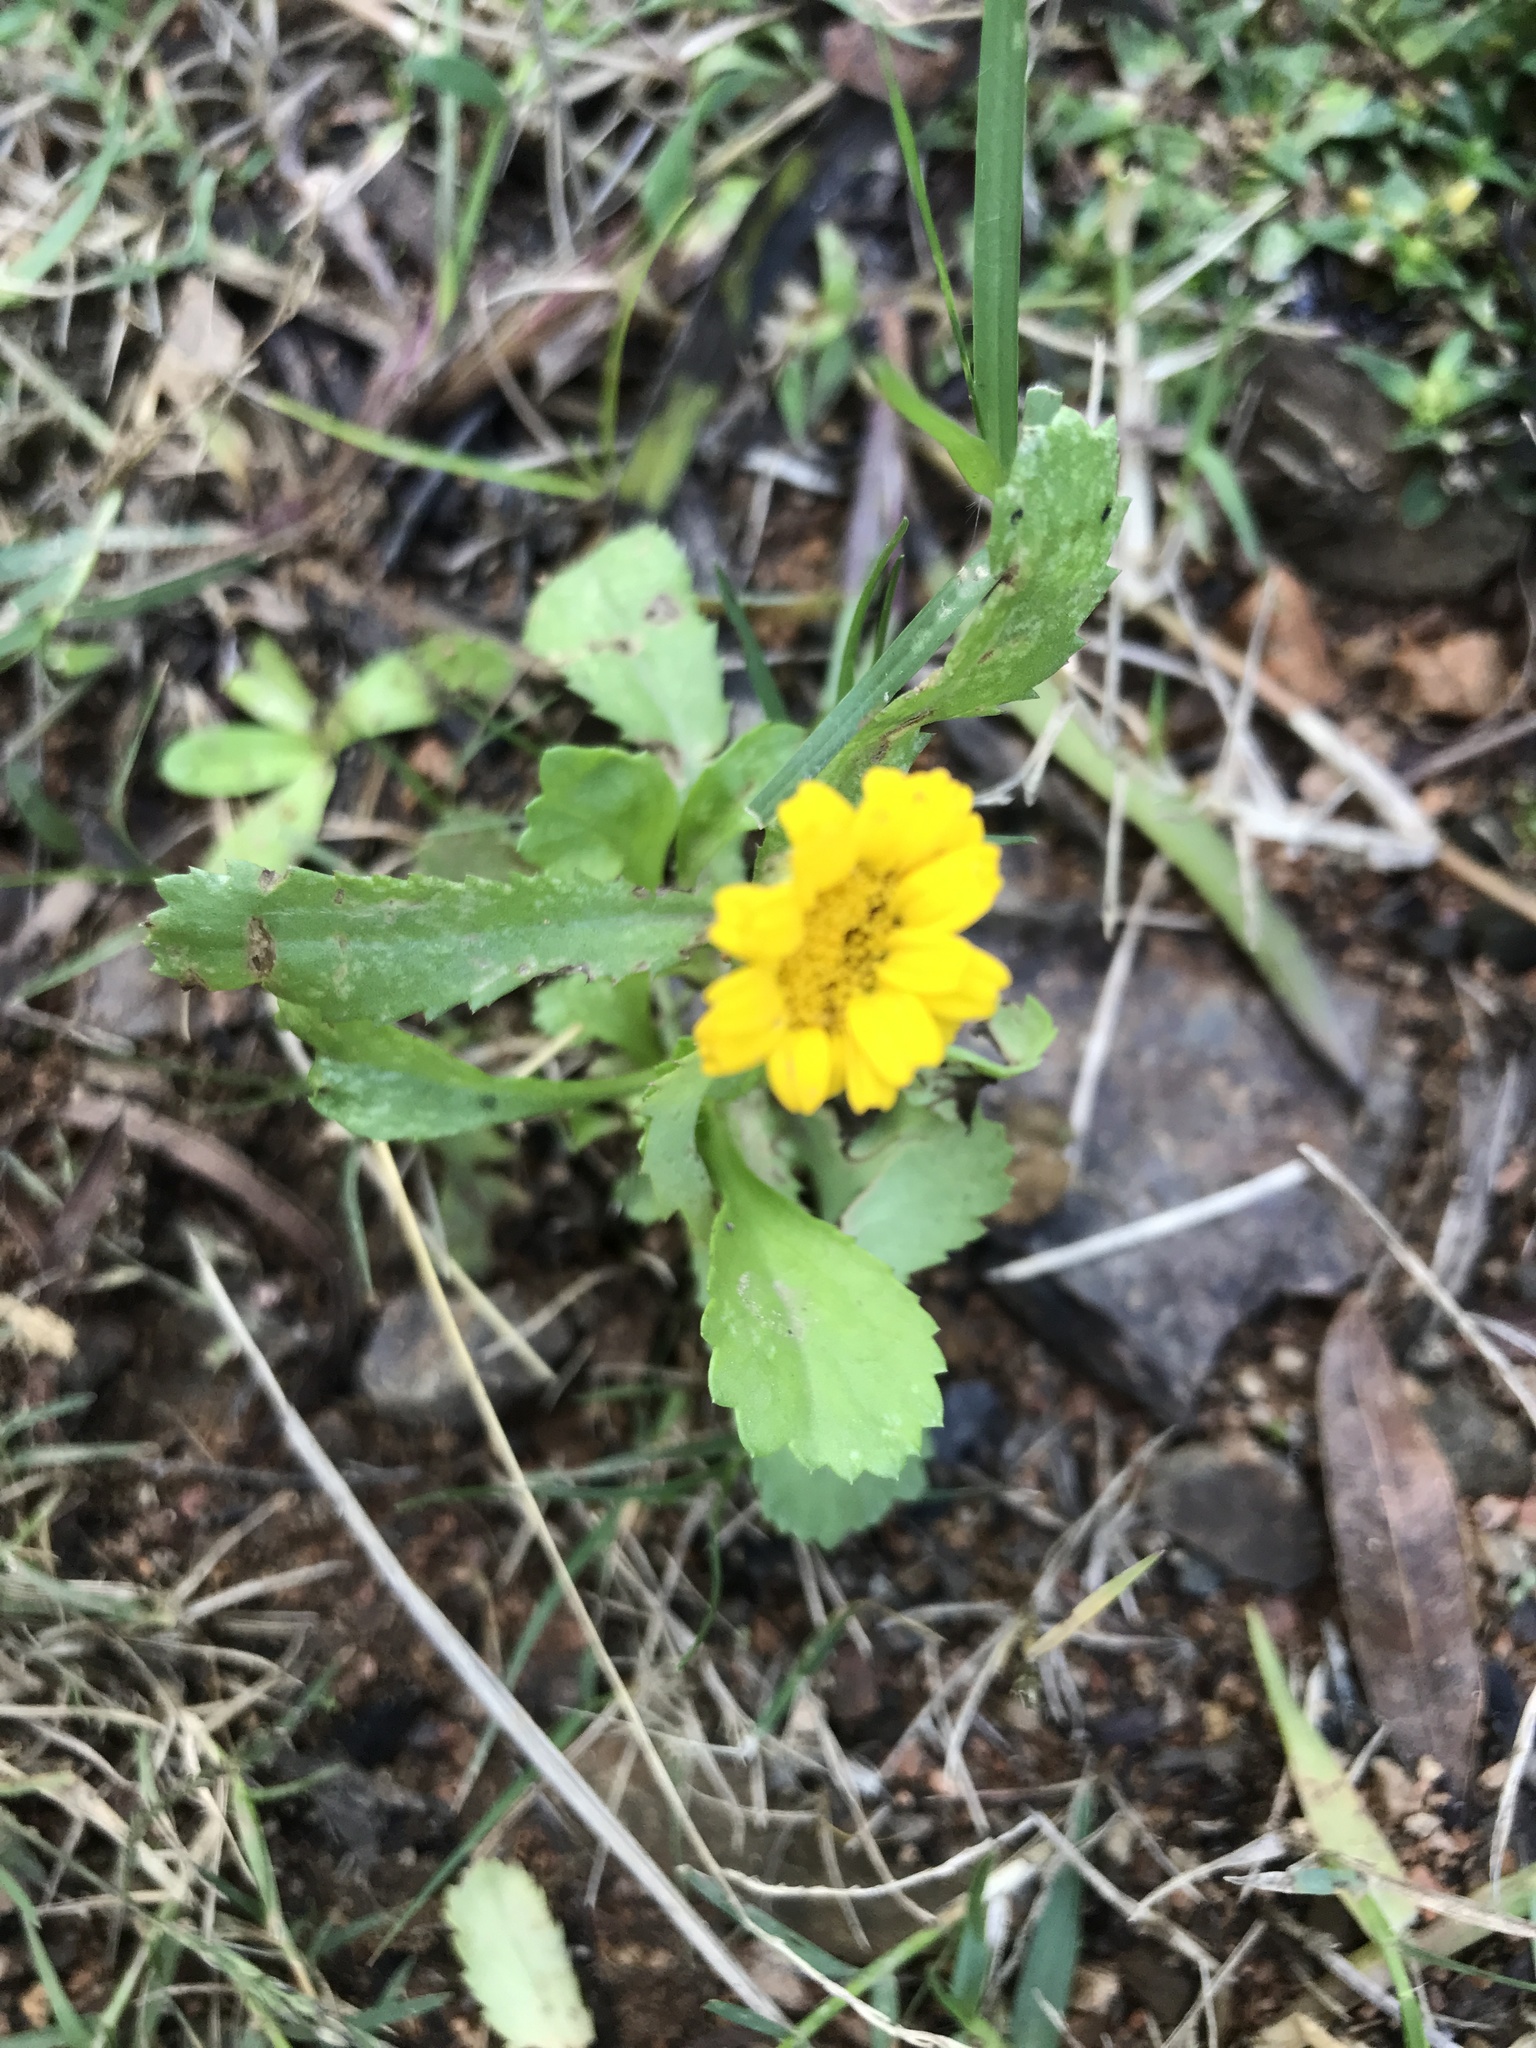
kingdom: Plantae
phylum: Tracheophyta
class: Magnoliopsida
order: Asterales
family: Asteraceae
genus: Coleostephus
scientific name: Coleostephus myconis
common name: Mediterranean marigold
